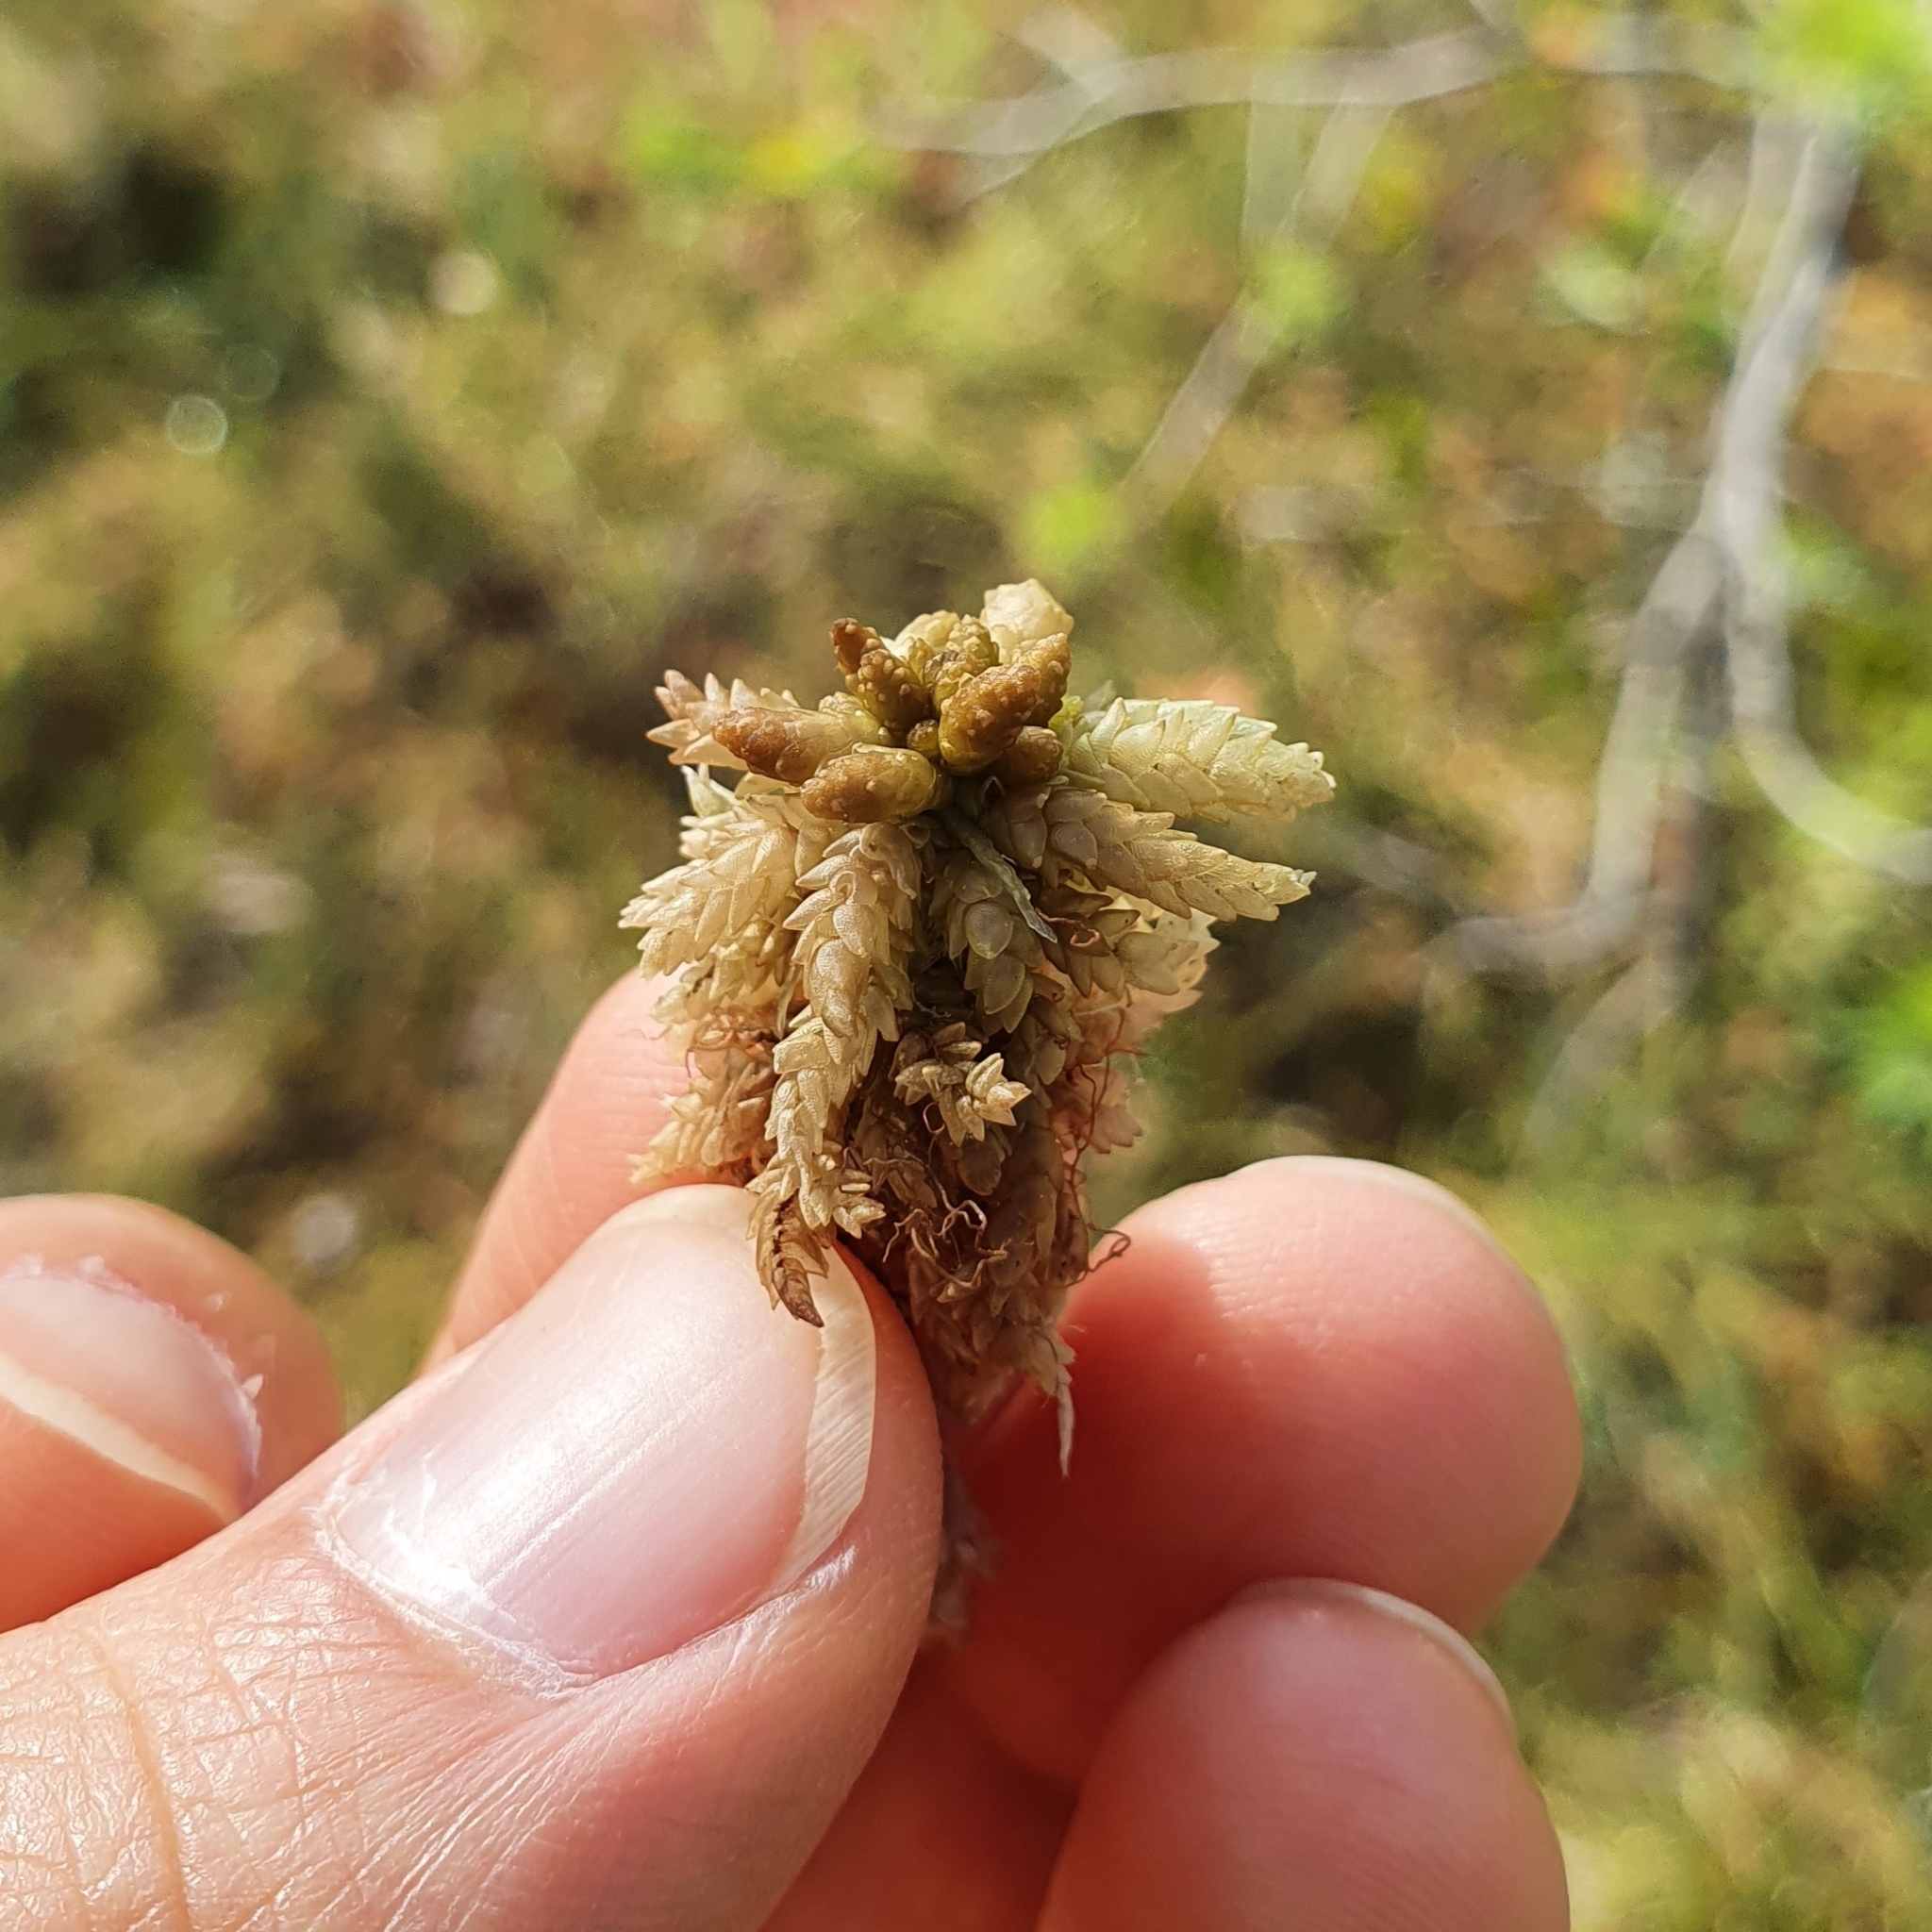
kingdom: Plantae
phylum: Bryophyta
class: Sphagnopsida
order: Sphagnales
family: Sphagnaceae
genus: Sphagnum
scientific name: Sphagnum papillosum
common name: Papillose peat moss
